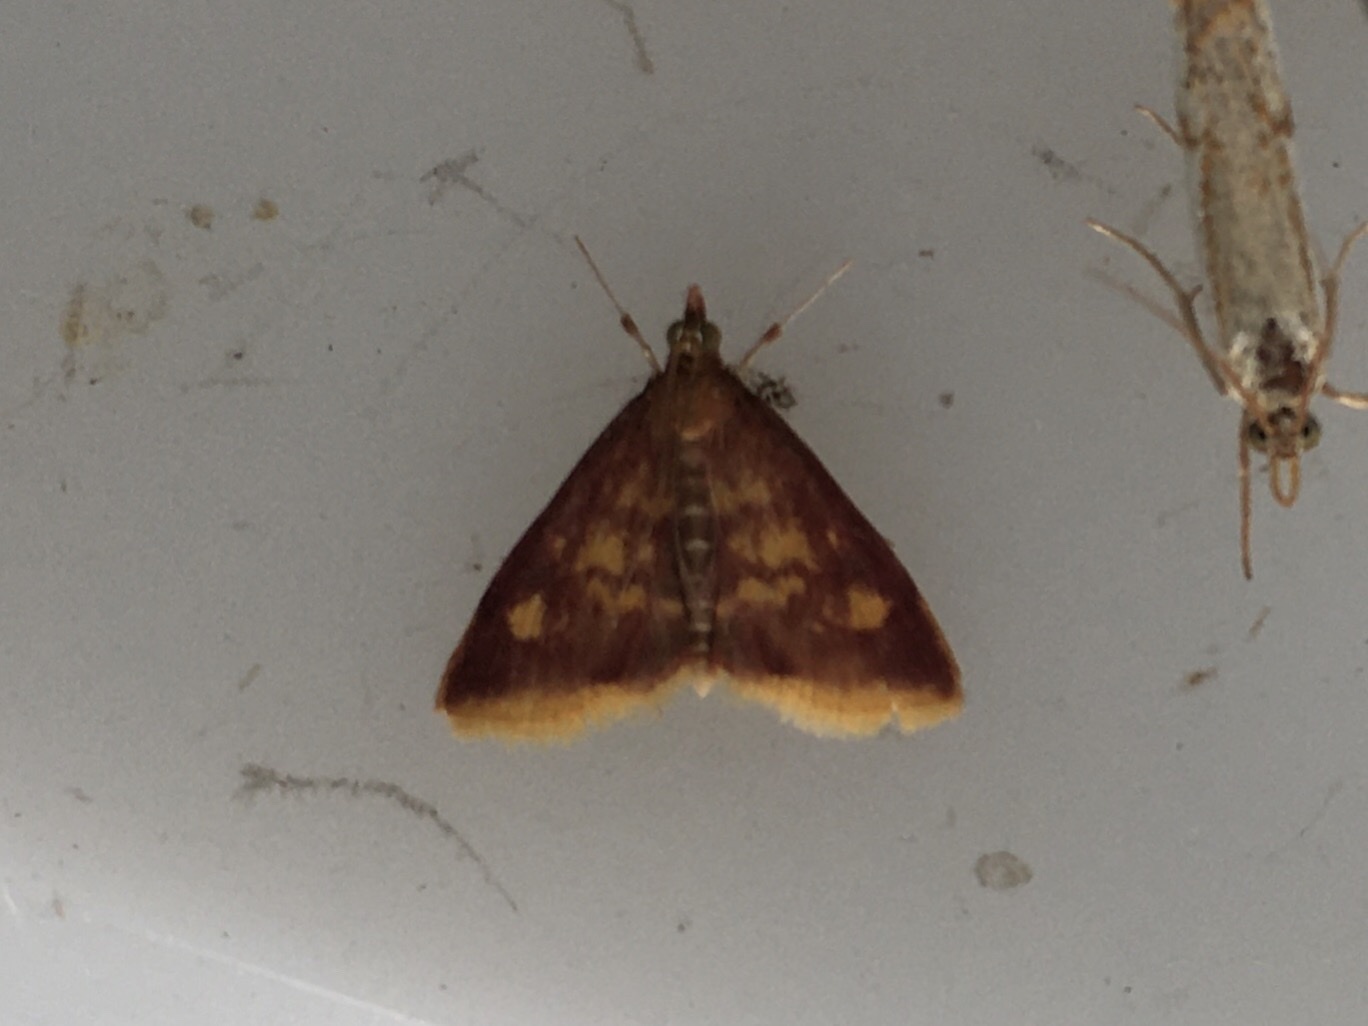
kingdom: Animalia
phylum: Arthropoda
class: Insecta
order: Lepidoptera
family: Crambidae
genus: Pyrausta
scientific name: Pyrausta acrionalis
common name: Mint-loving pyrausta moth
